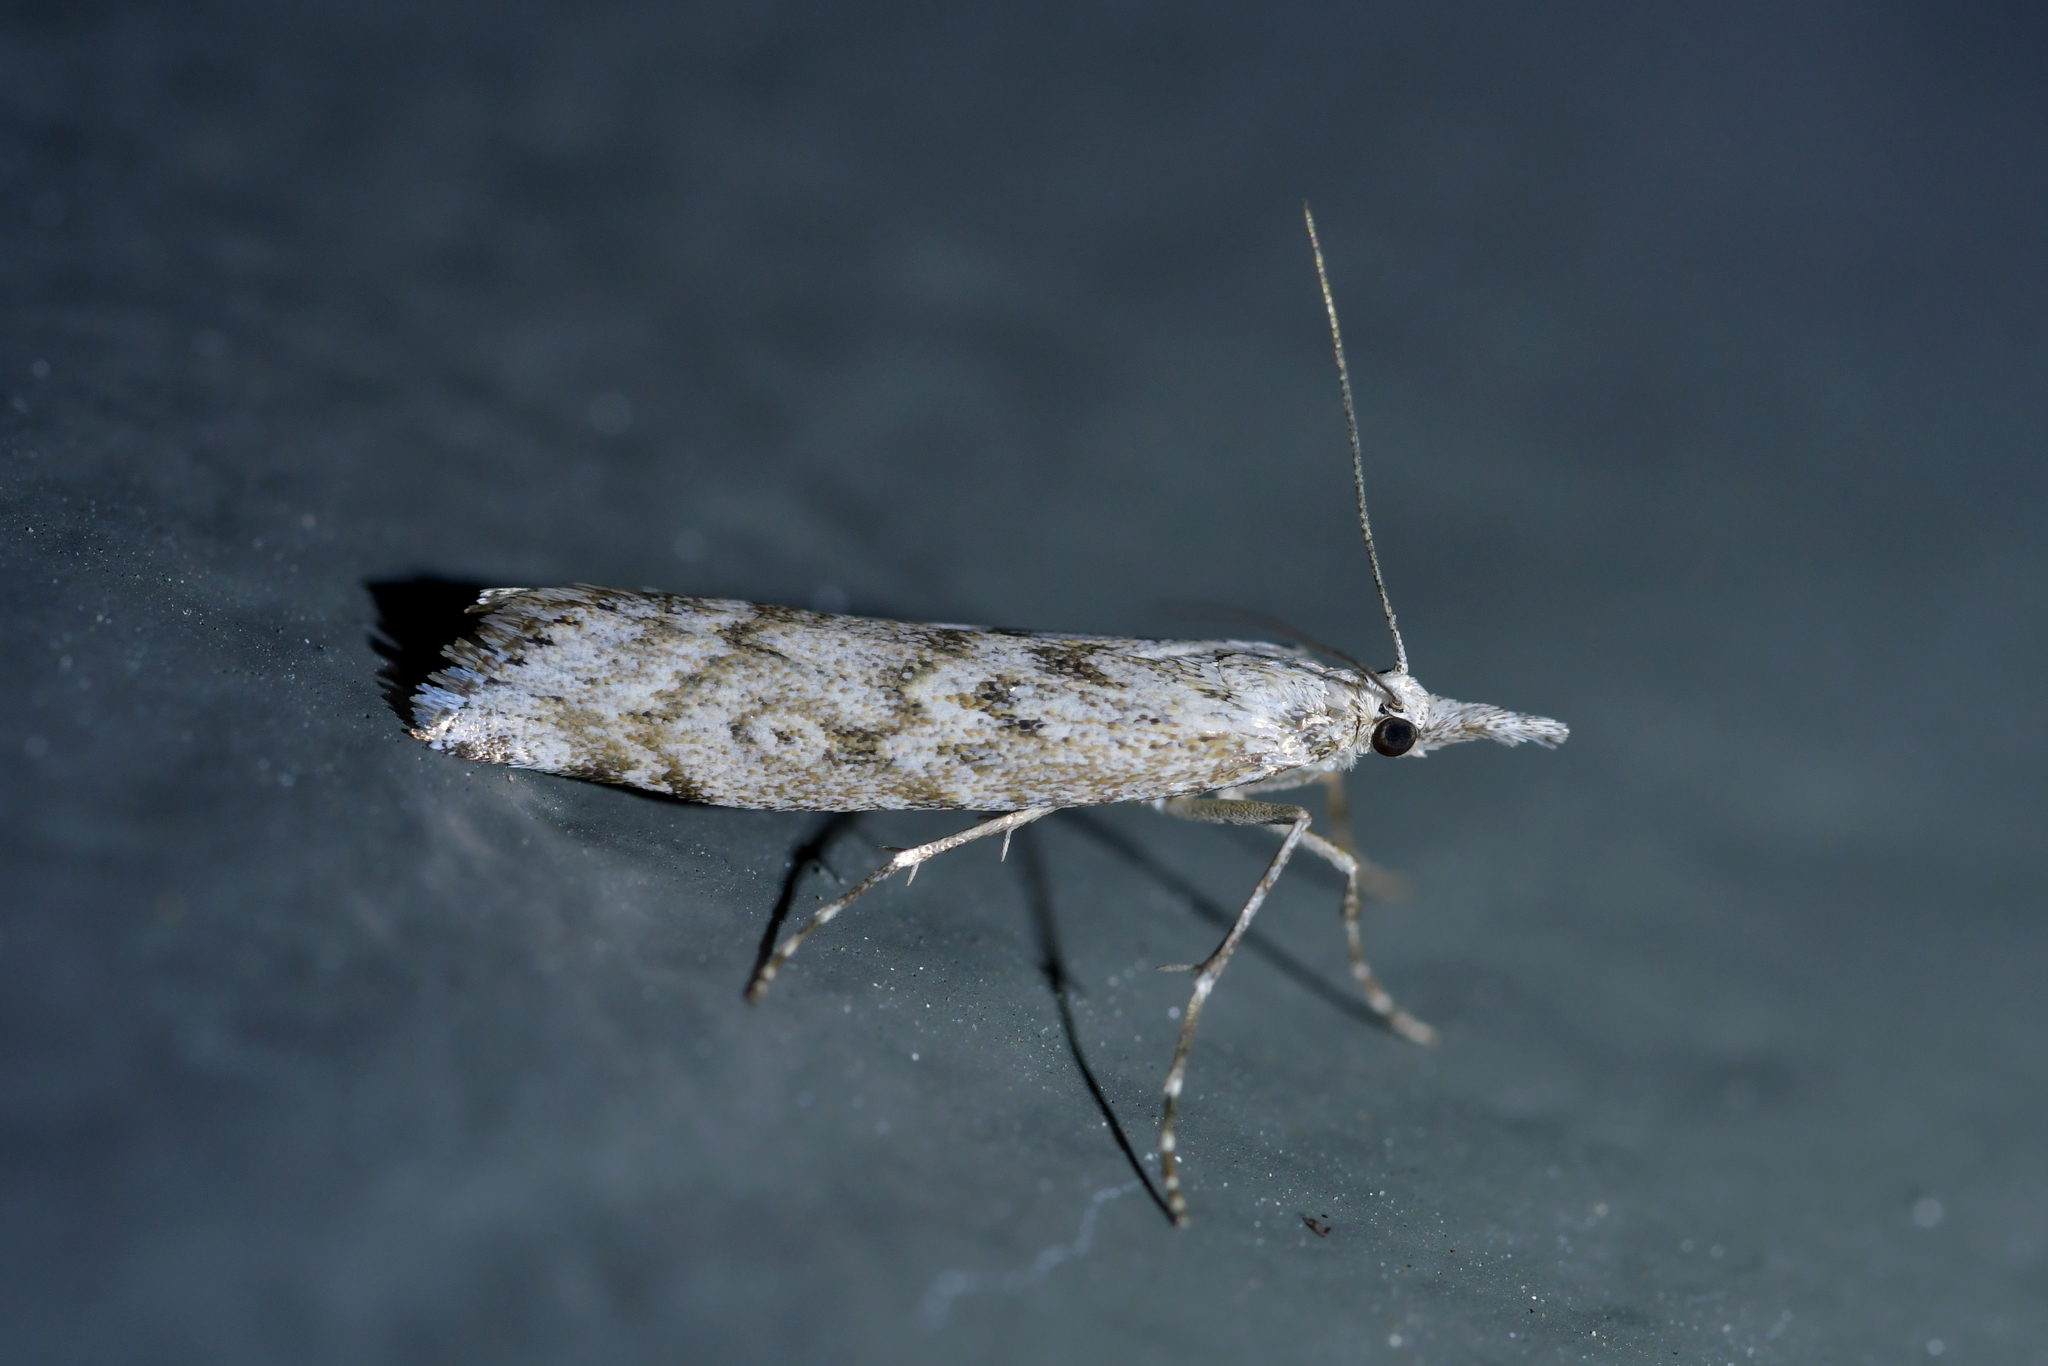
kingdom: Animalia
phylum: Arthropoda
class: Insecta
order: Lepidoptera
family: Crambidae
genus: Orocrambus
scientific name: Orocrambus cyclopicus
